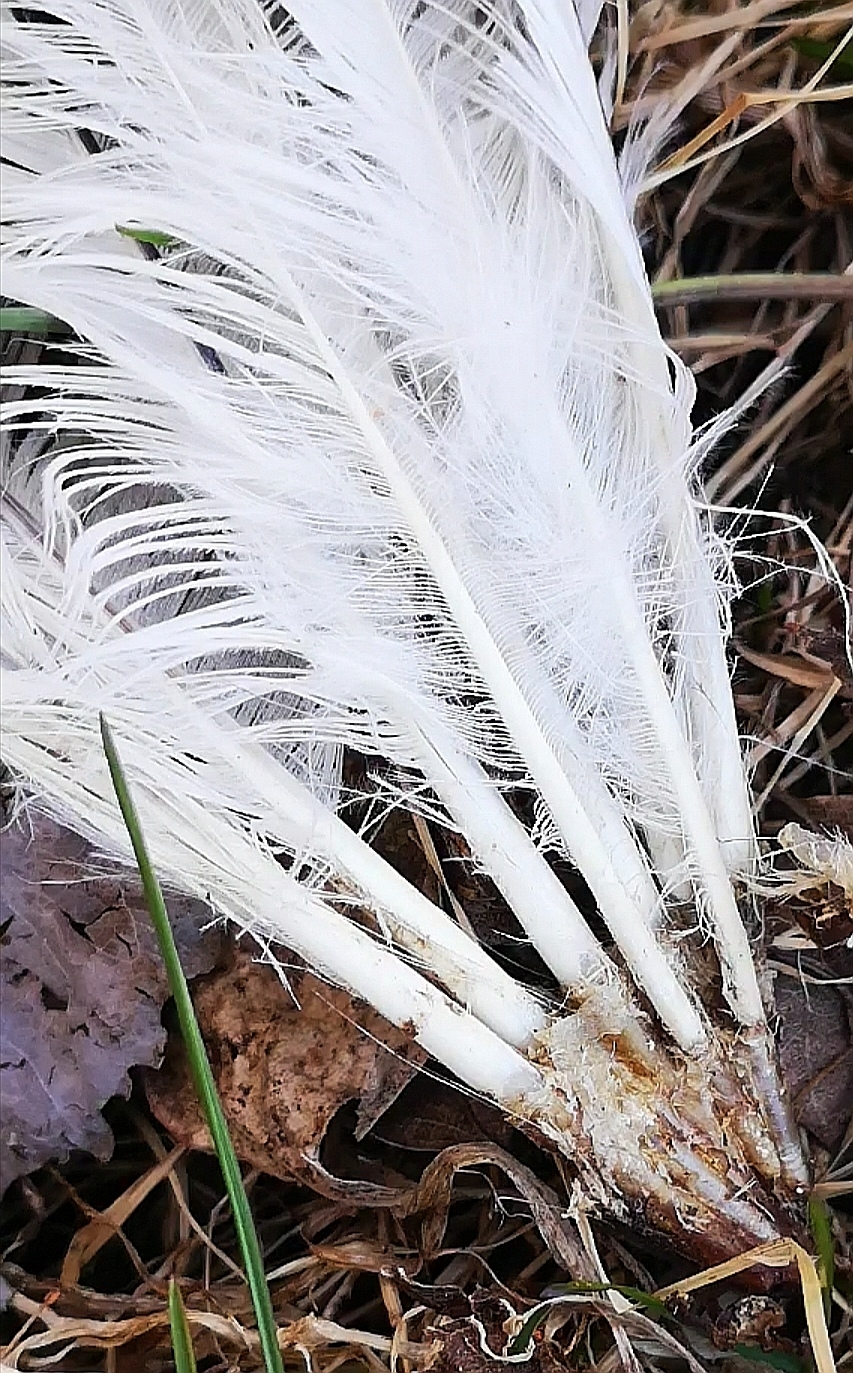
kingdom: Animalia
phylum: Chordata
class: Aves
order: Galliformes
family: Phasianidae
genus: Gallus
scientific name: Gallus gallus
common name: Red junglefowl
